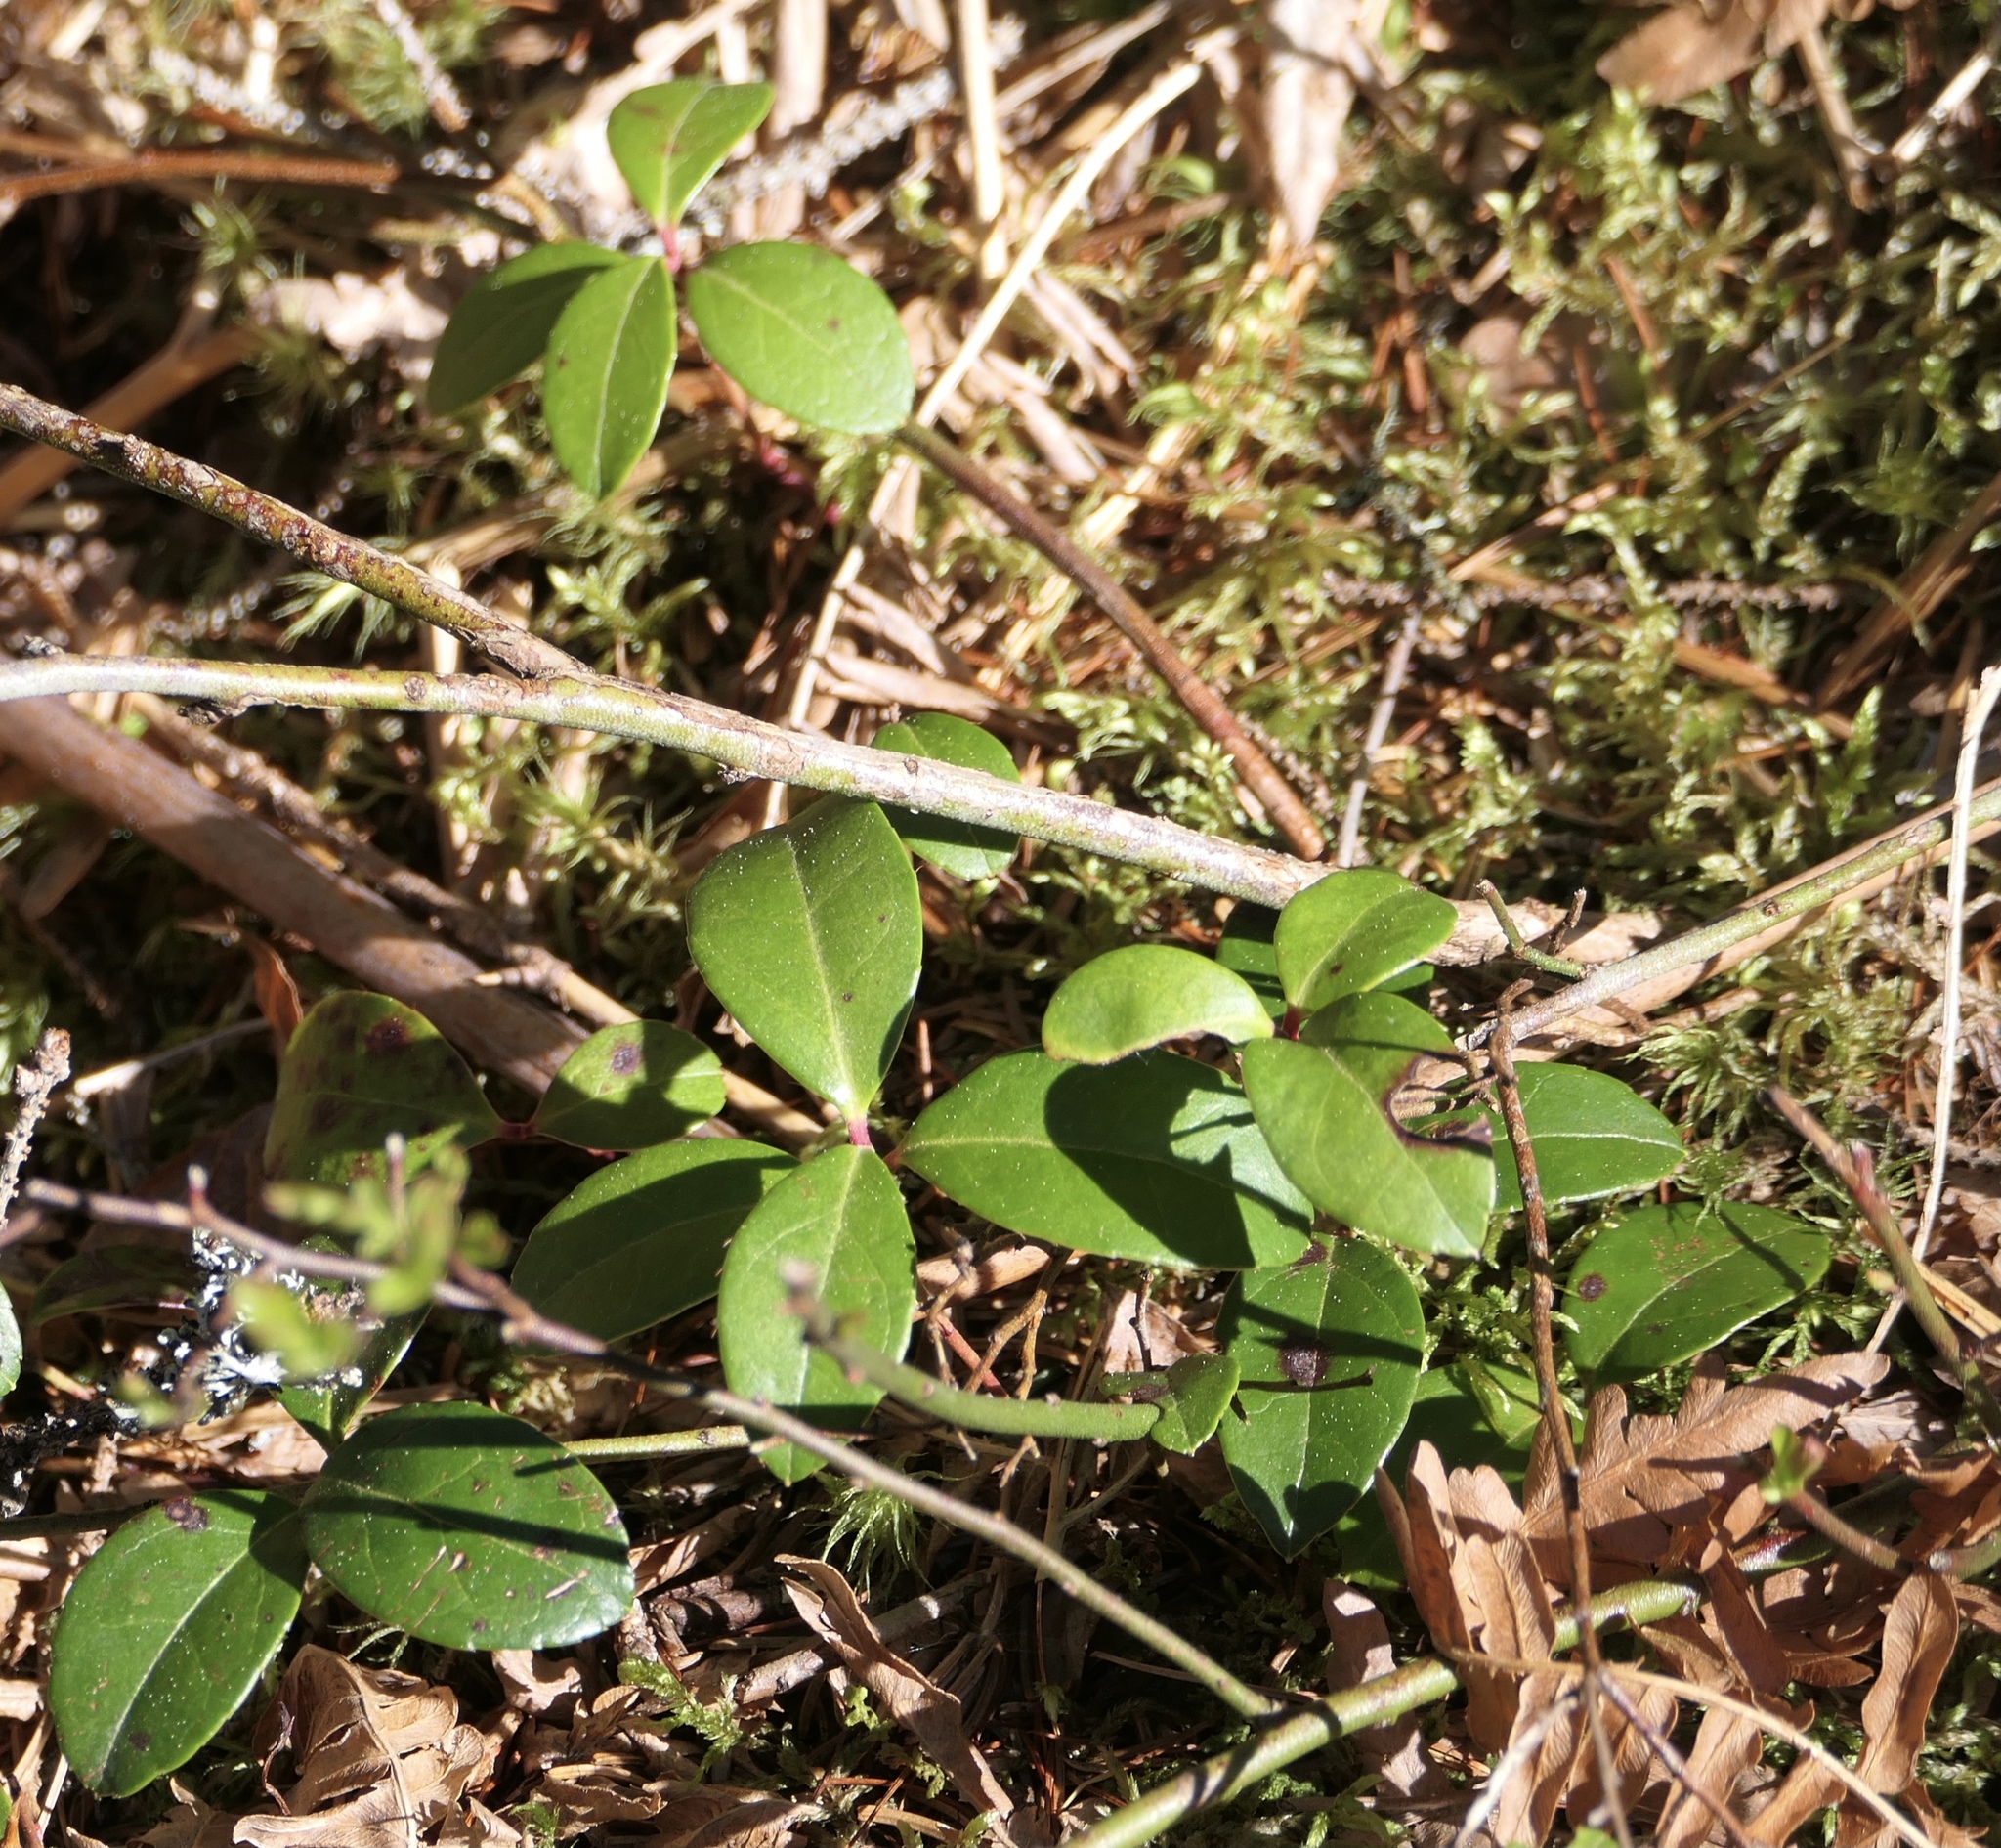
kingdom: Plantae
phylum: Tracheophyta
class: Magnoliopsida
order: Ericales
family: Ericaceae
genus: Gaultheria
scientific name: Gaultheria procumbens
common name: Checkerberry
